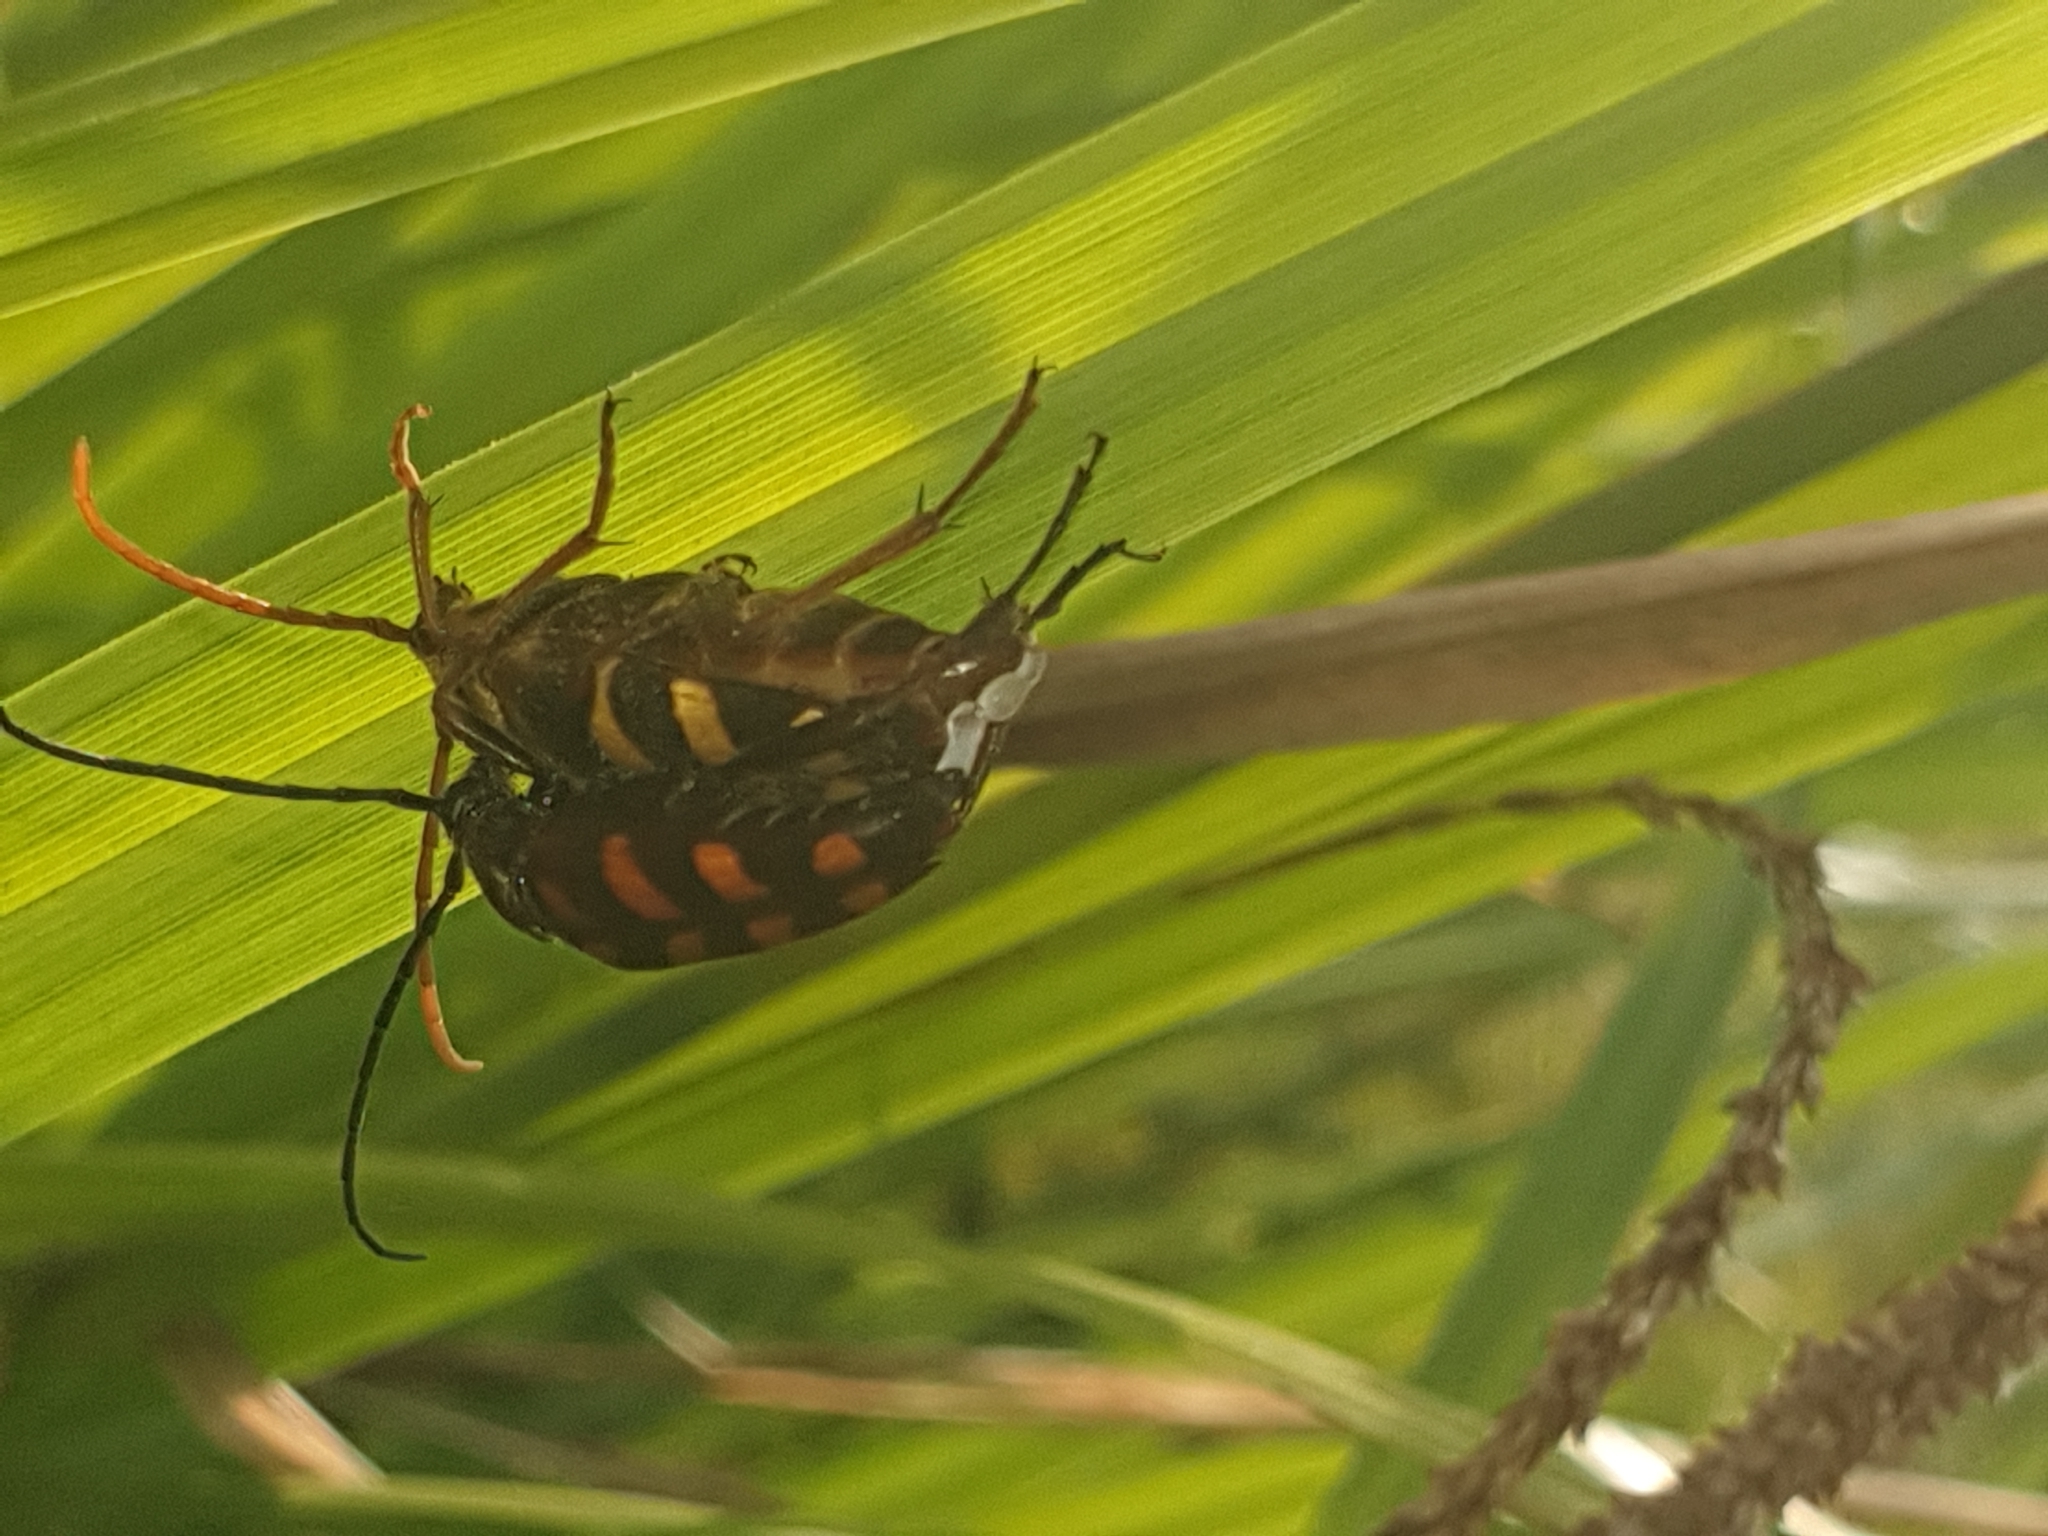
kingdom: Animalia
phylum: Arthropoda
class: Insecta
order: Coleoptera
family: Cerambycidae
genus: Leptura
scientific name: Leptura aurulenta
